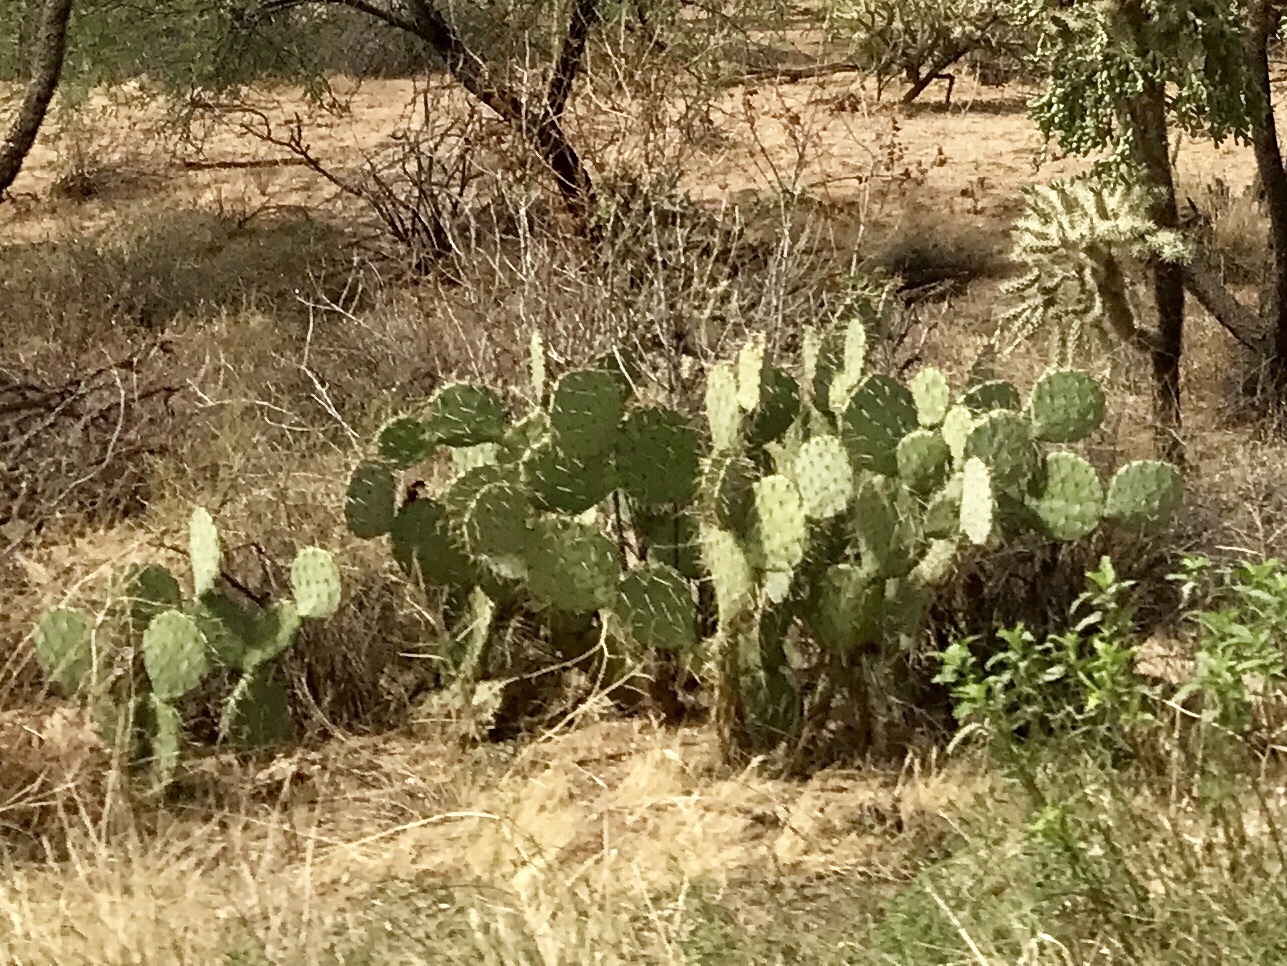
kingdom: Plantae
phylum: Tracheophyta
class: Magnoliopsida
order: Caryophyllales
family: Cactaceae
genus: Opuntia
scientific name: Opuntia orbiculata
